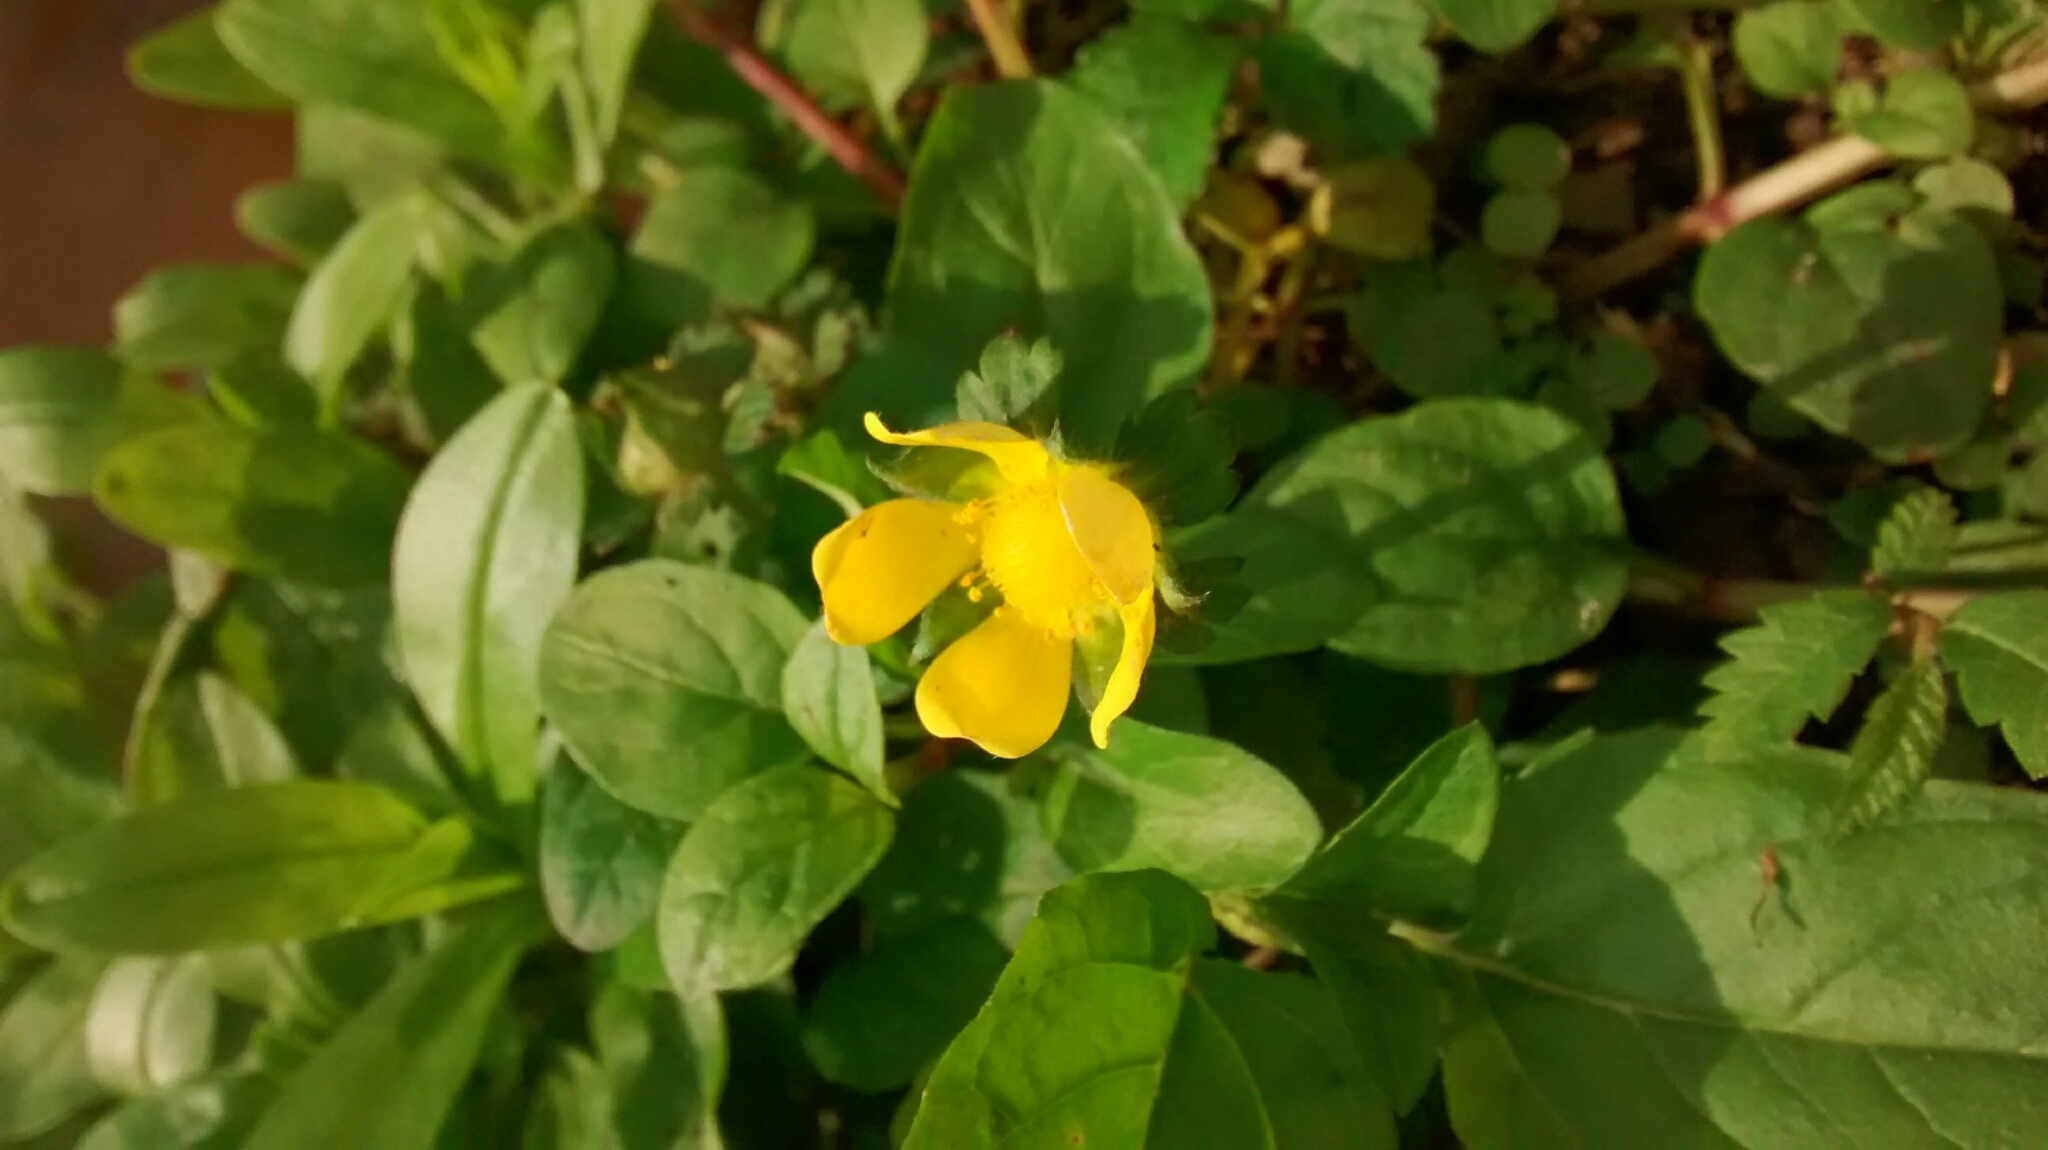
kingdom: Plantae
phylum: Tracheophyta
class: Magnoliopsida
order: Rosales
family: Rosaceae
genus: Potentilla
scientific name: Potentilla indica
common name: Yellow-flowered strawberry
